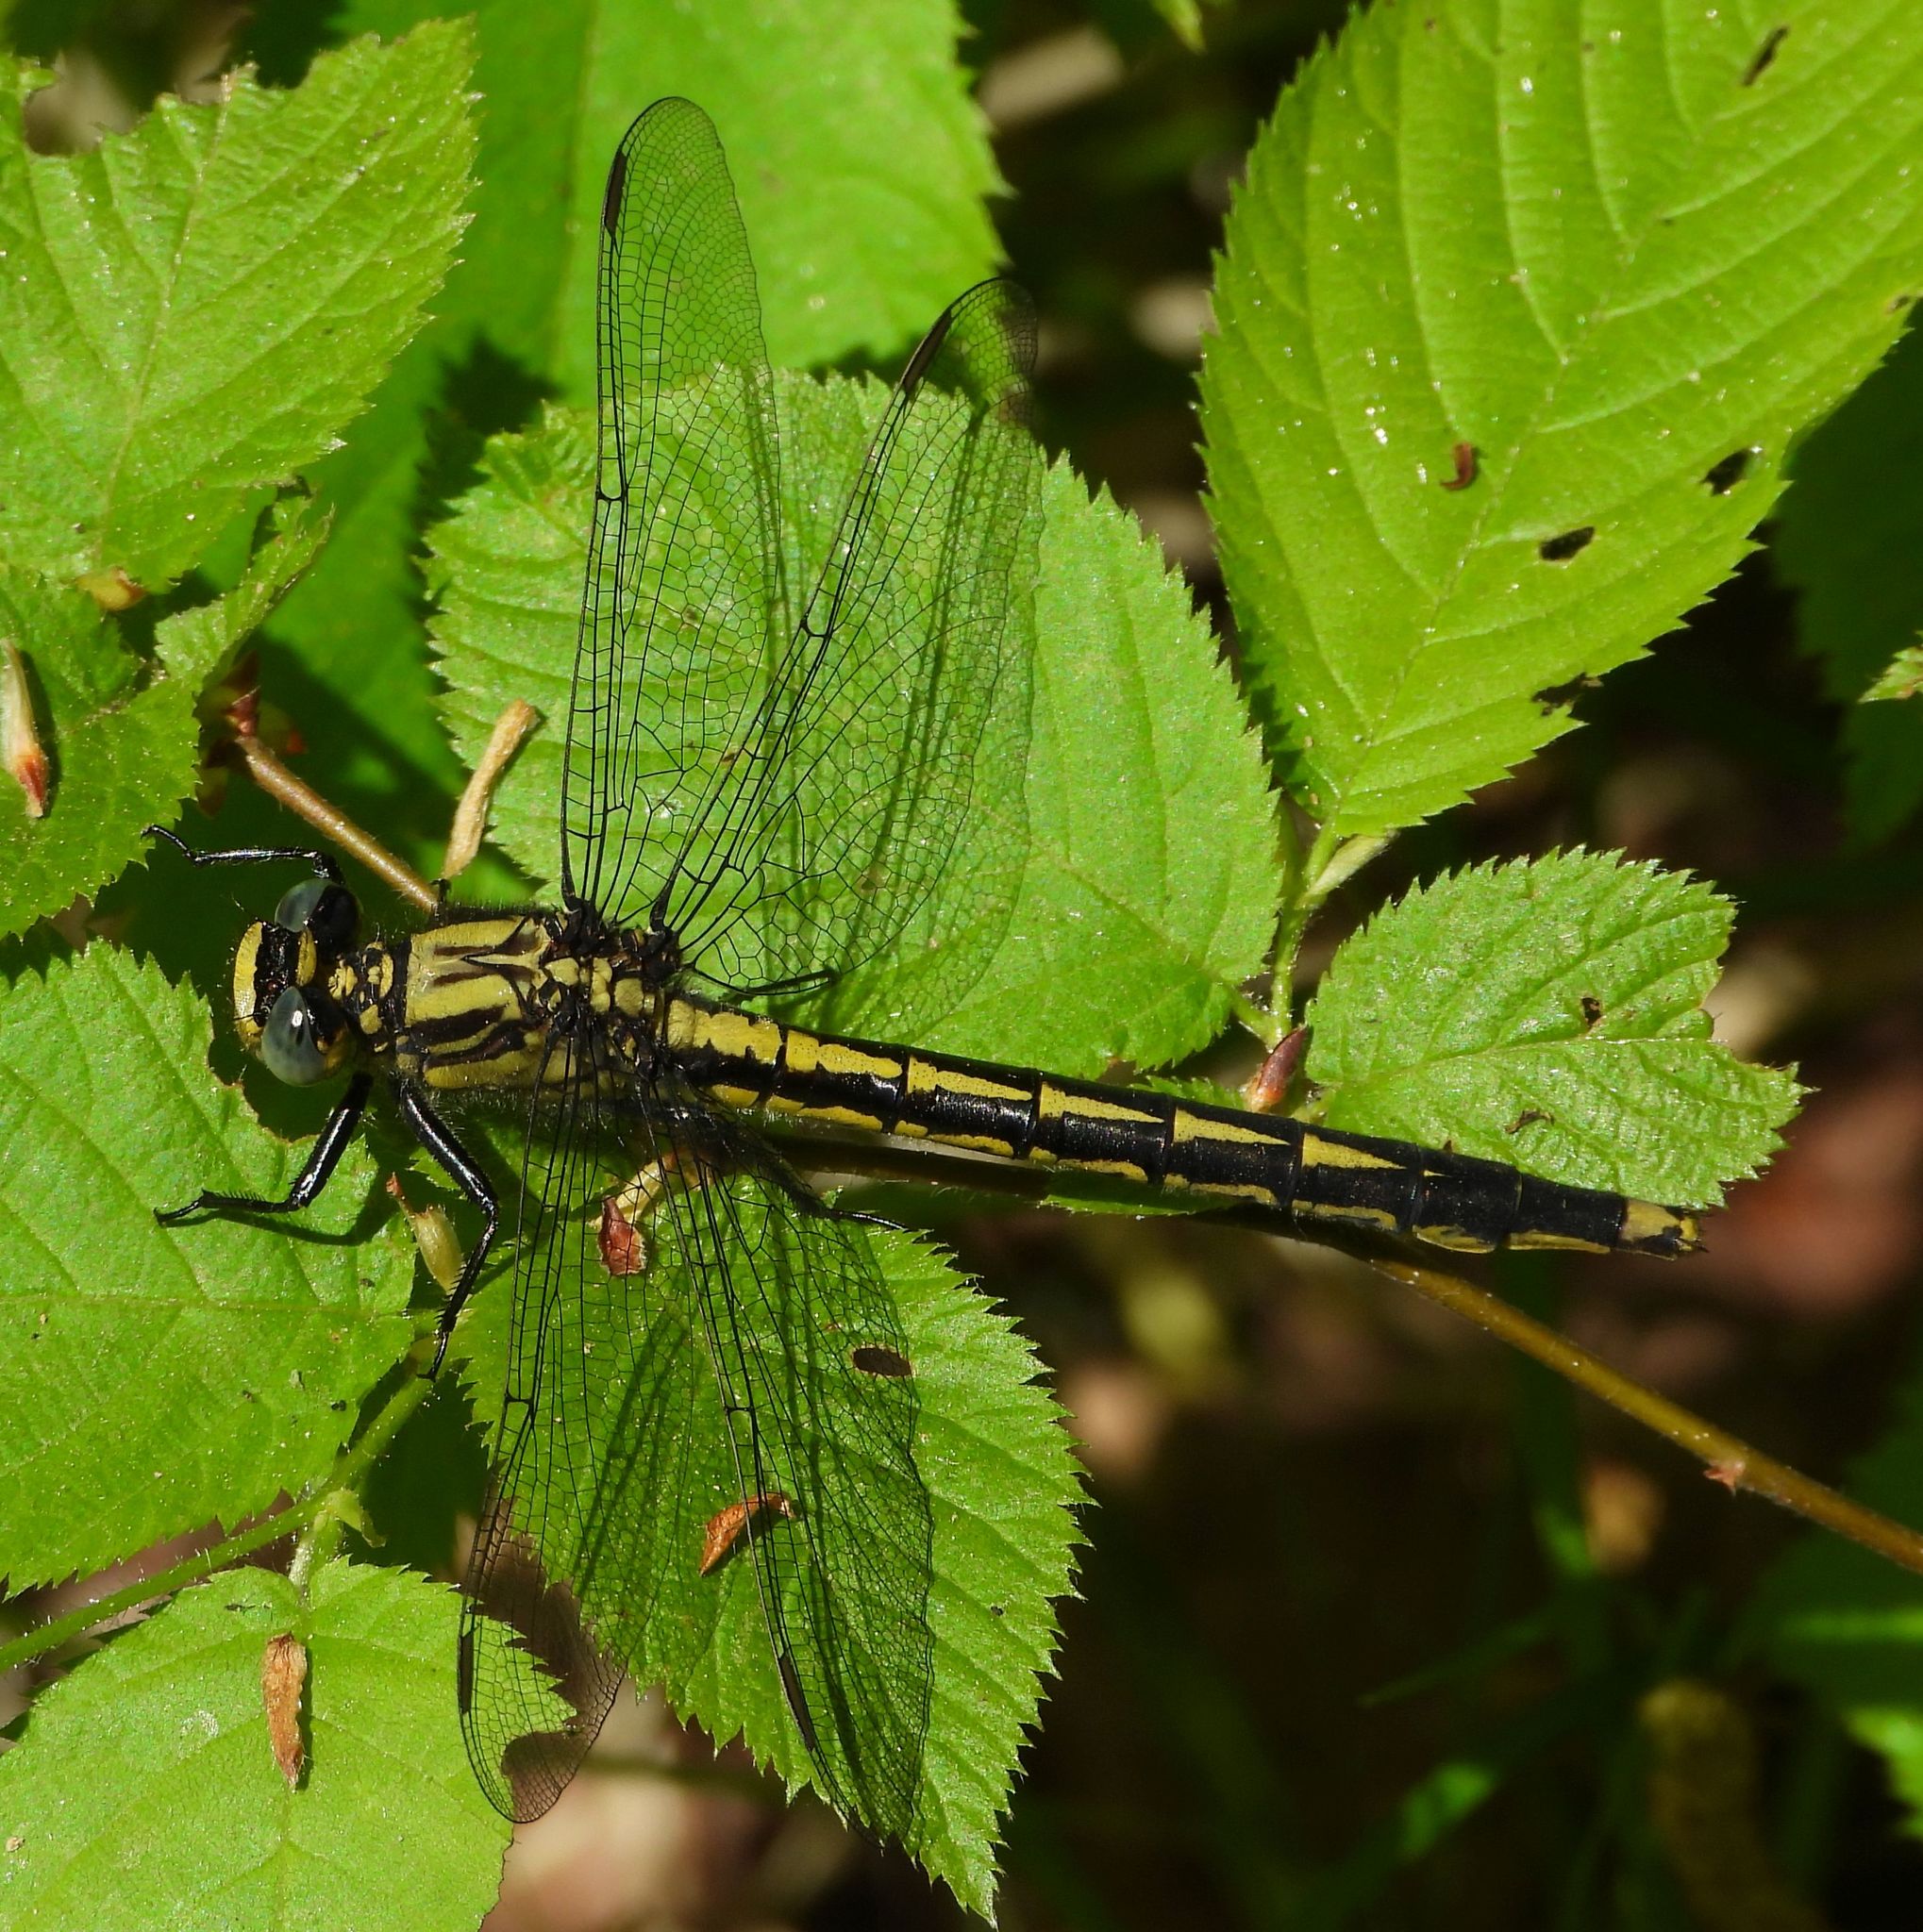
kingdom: Animalia
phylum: Arthropoda
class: Insecta
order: Odonata
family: Gomphidae
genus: Arigomphus
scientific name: Arigomphus furcifer
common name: Lilypad clubtail
